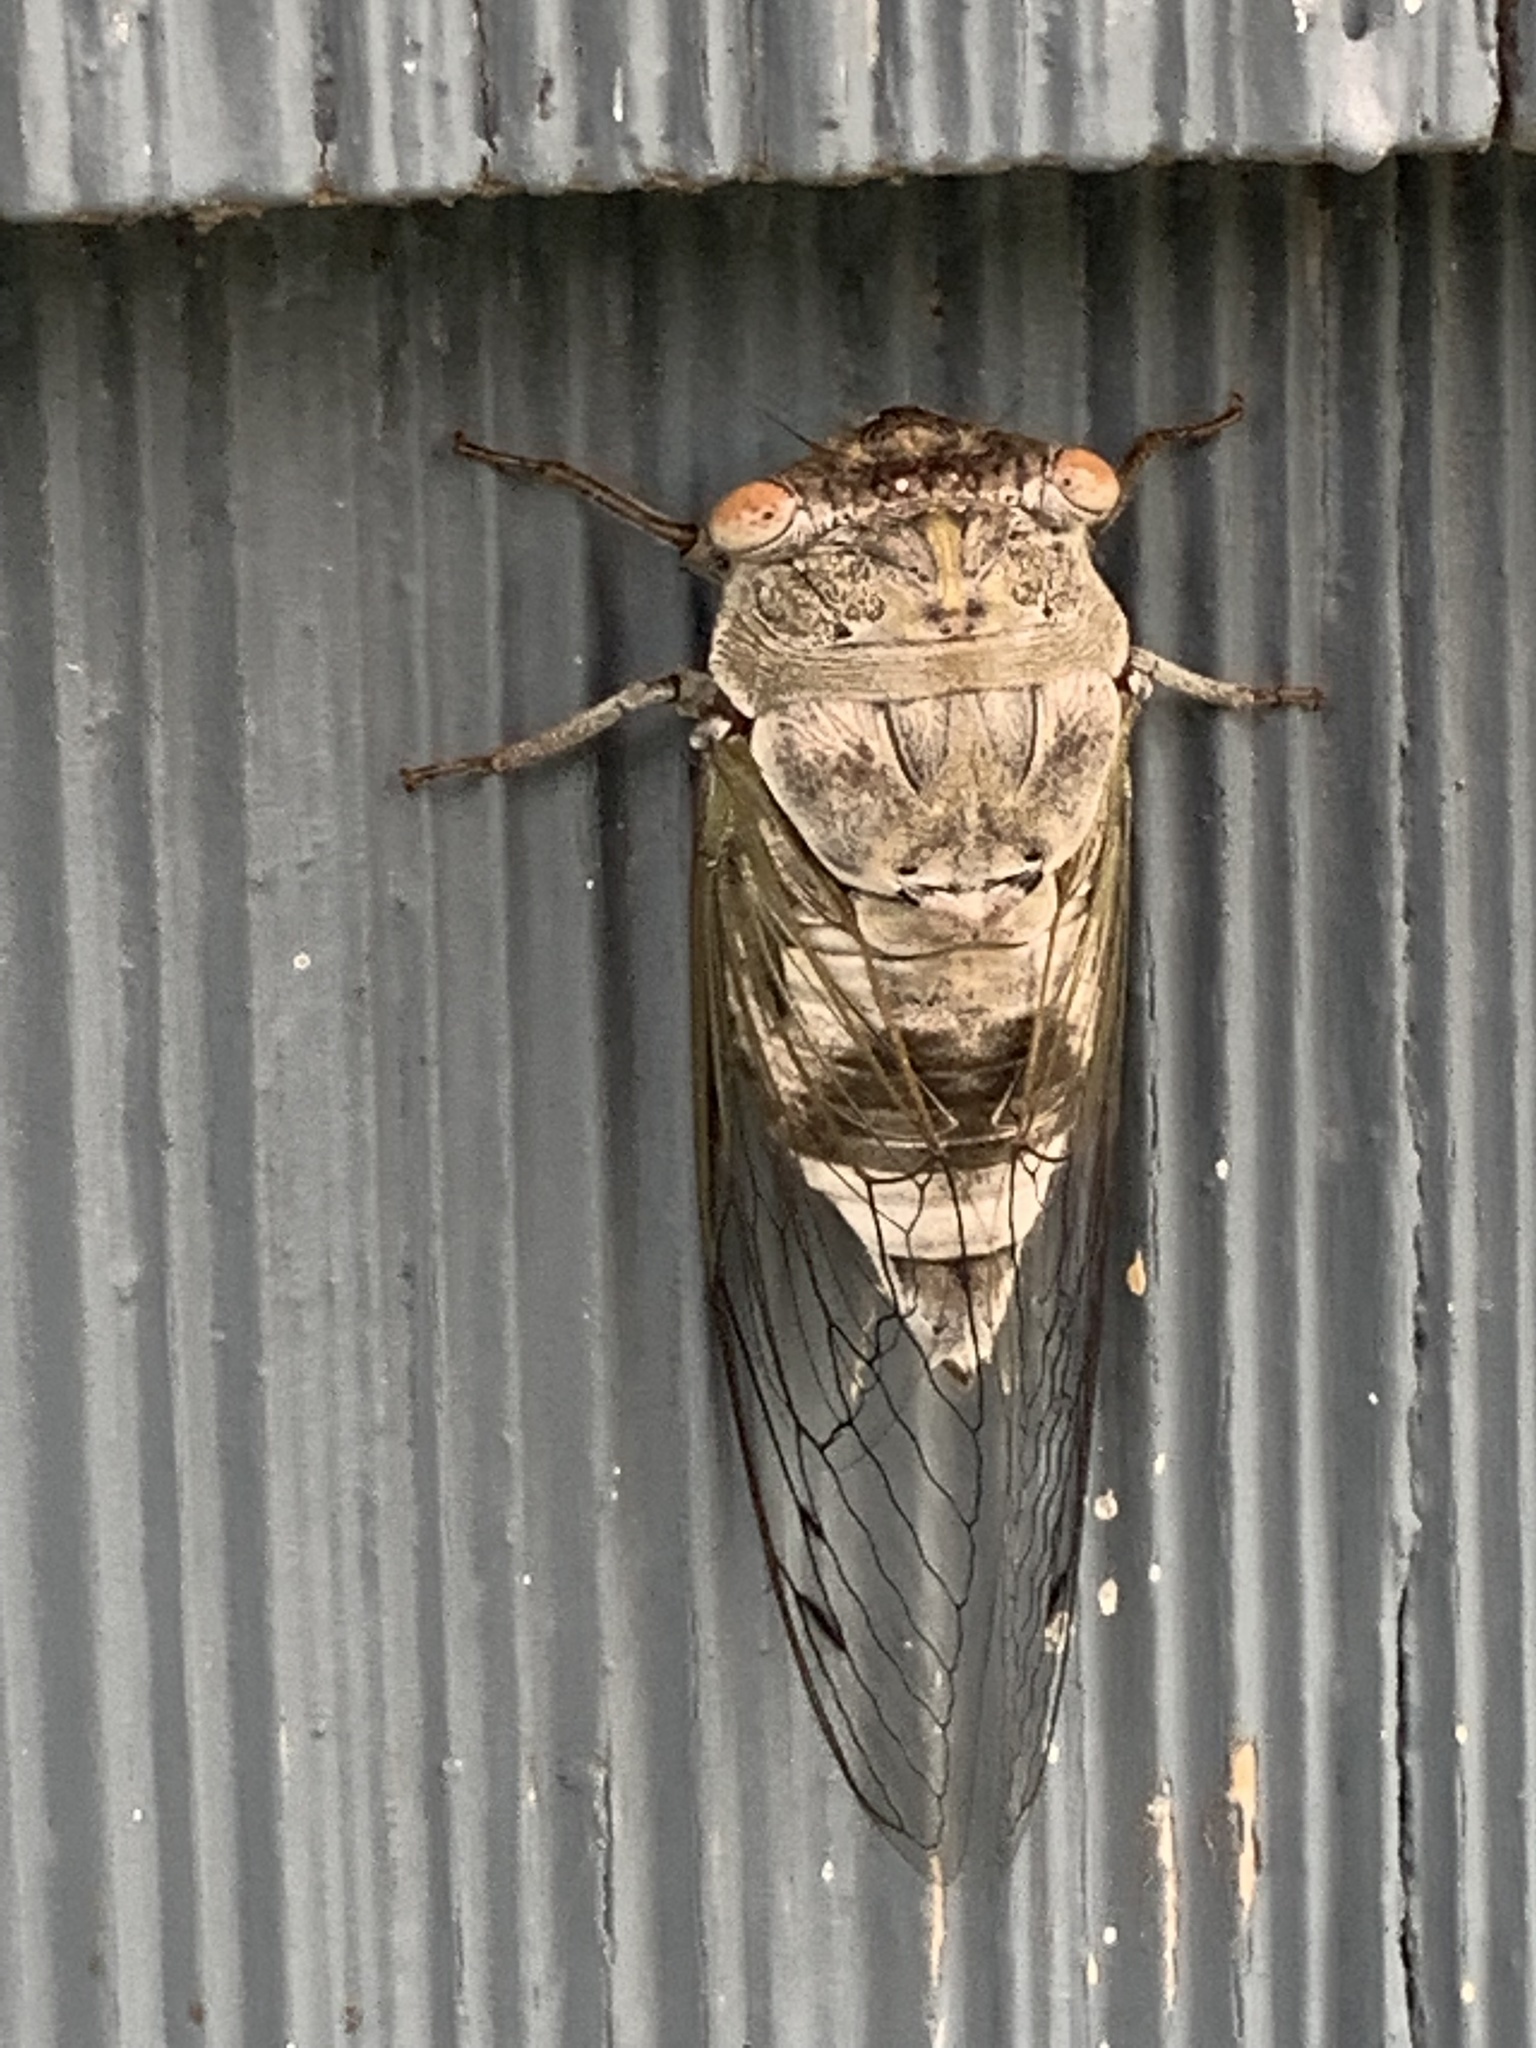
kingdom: Animalia
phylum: Arthropoda
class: Insecta
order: Hemiptera
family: Cicadidae
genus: Diceroprocta
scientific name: Diceroprocta grossa
